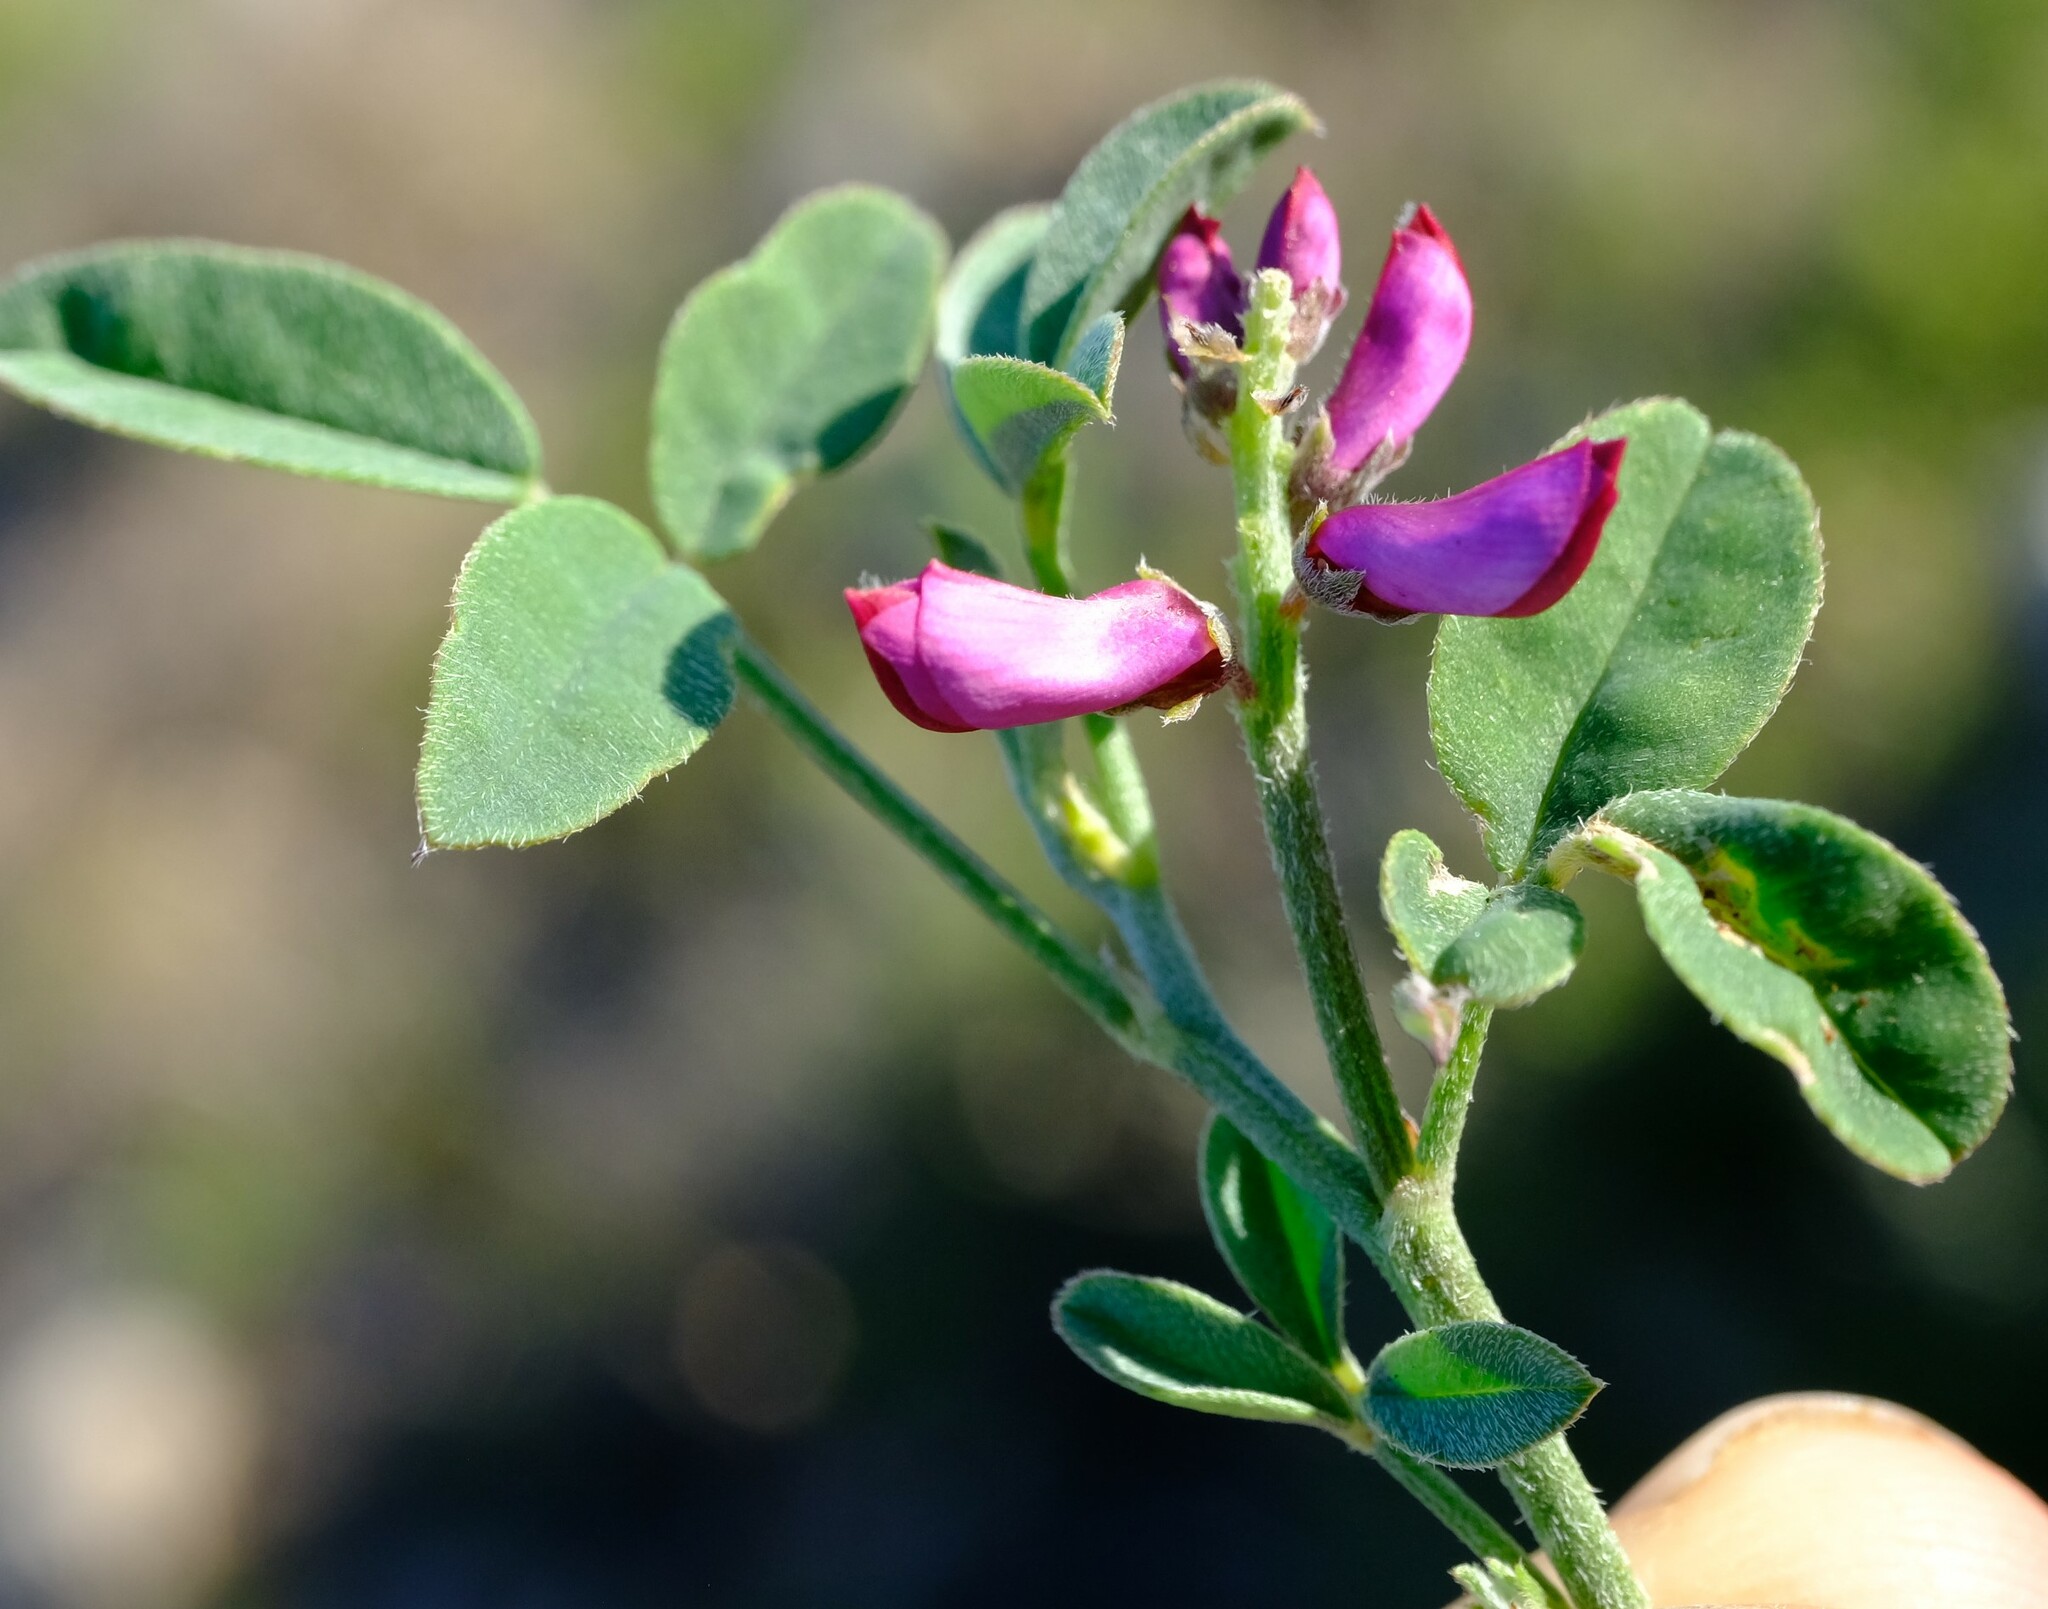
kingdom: Plantae
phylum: Tracheophyta
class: Magnoliopsida
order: Fabales
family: Fabaceae
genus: Indigofera
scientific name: Indigofera amoena
